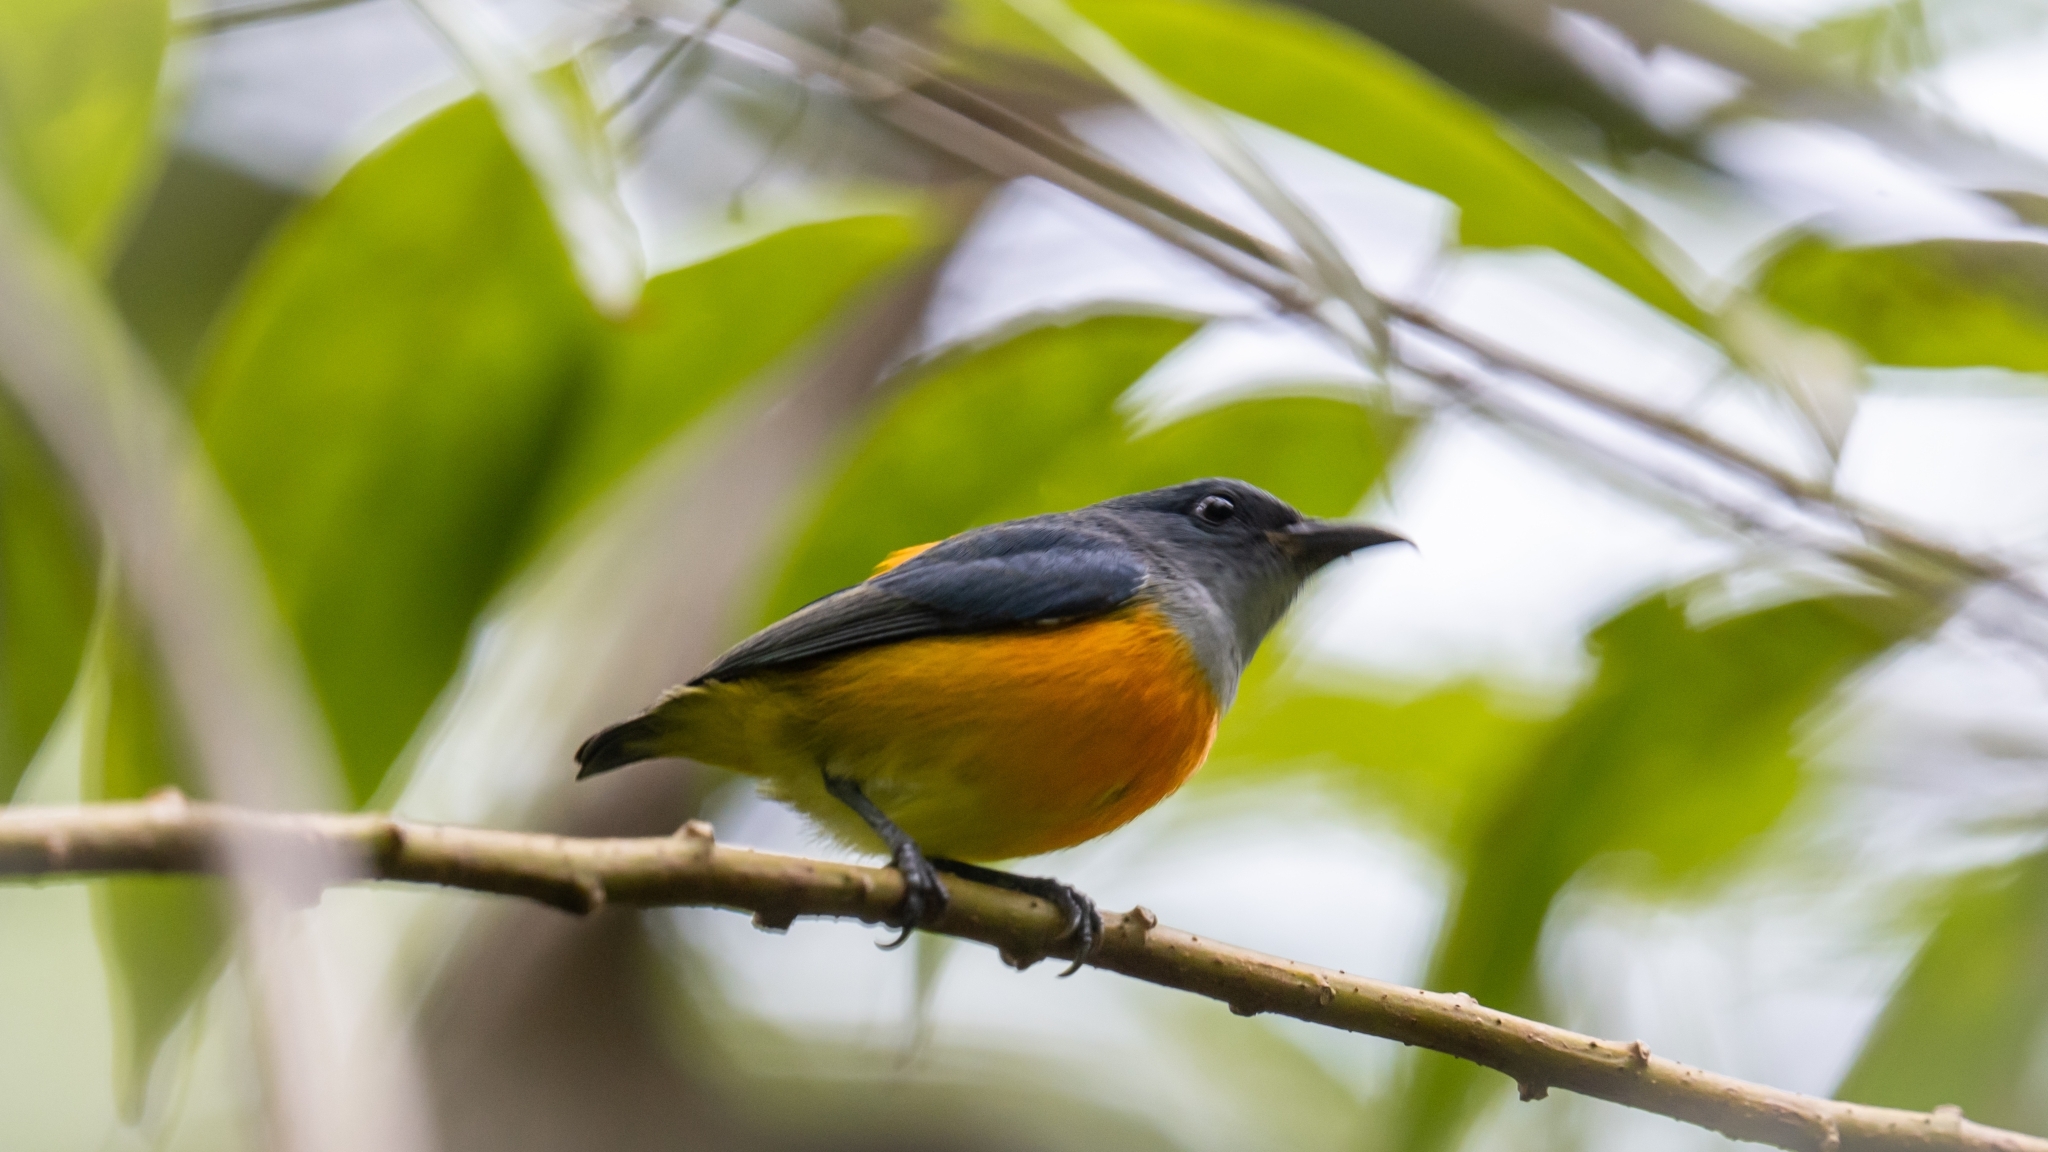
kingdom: Animalia
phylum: Chordata
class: Aves
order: Passeriformes
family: Dicaeidae
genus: Dicaeum
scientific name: Dicaeum trigonostigma
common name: Orange-bellied flowerpecker
